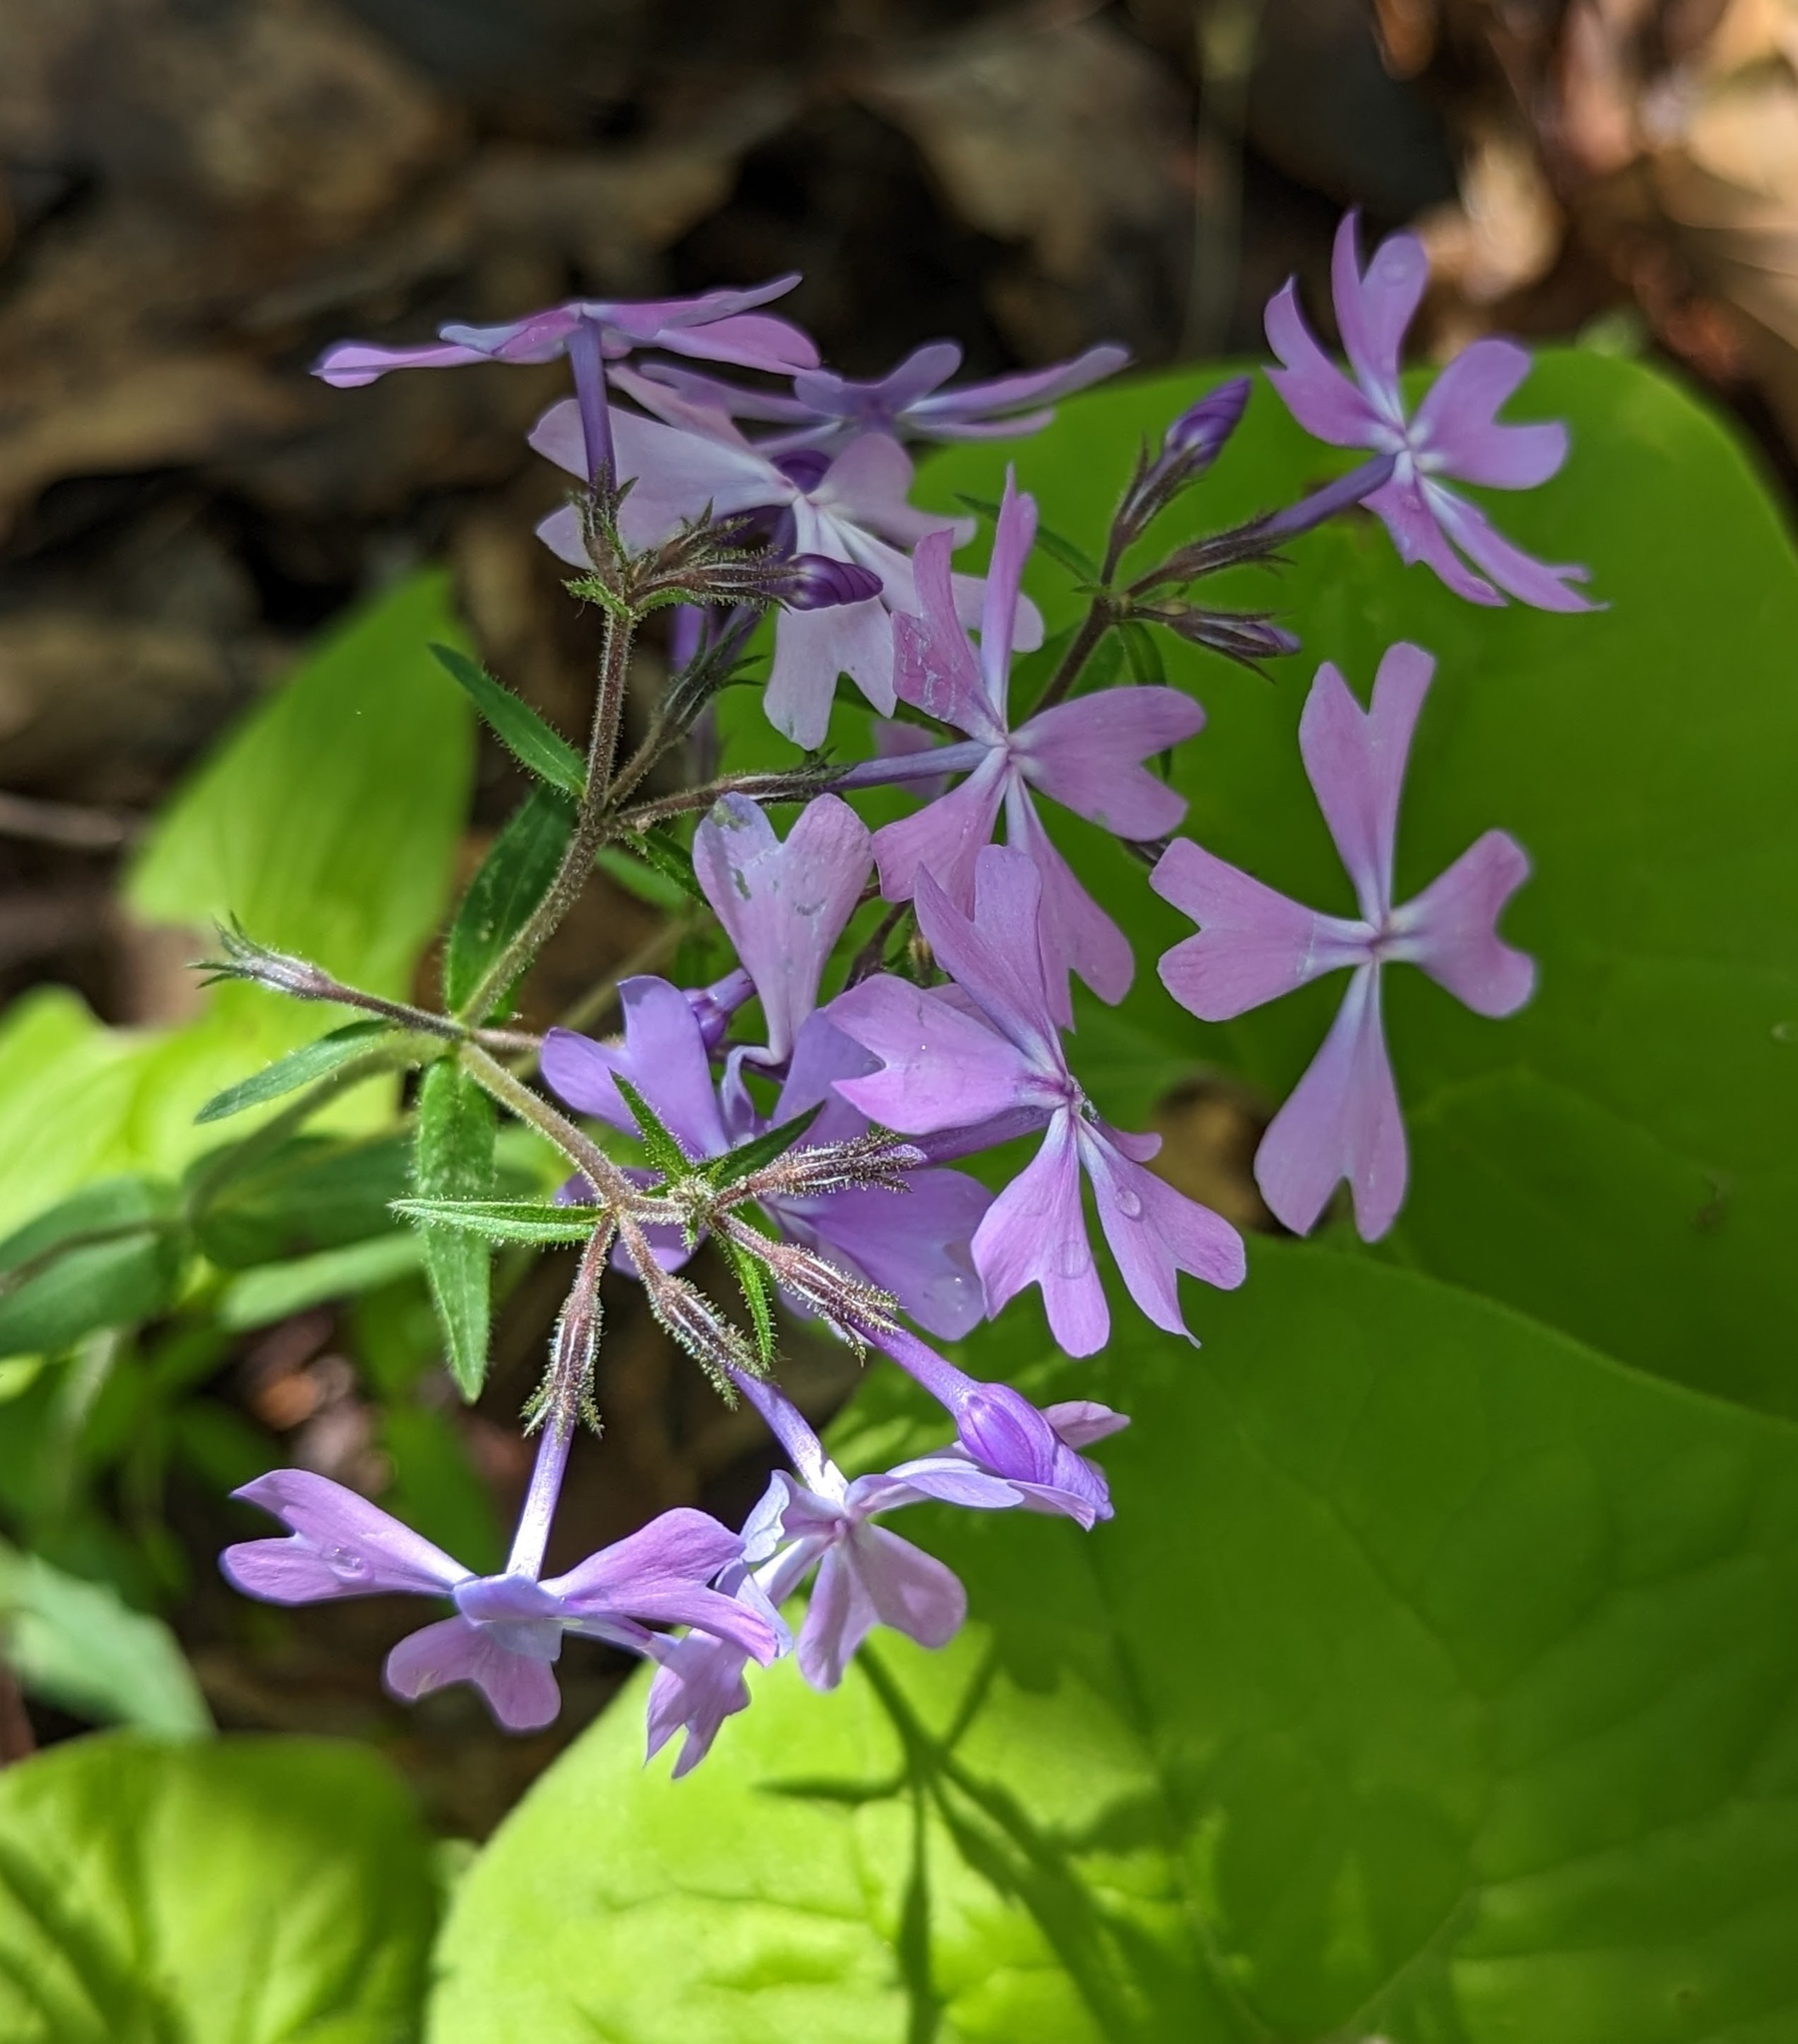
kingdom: Plantae
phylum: Tracheophyta
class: Magnoliopsida
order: Ericales
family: Polemoniaceae
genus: Phlox
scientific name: Phlox divaricata
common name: Blue phlox
